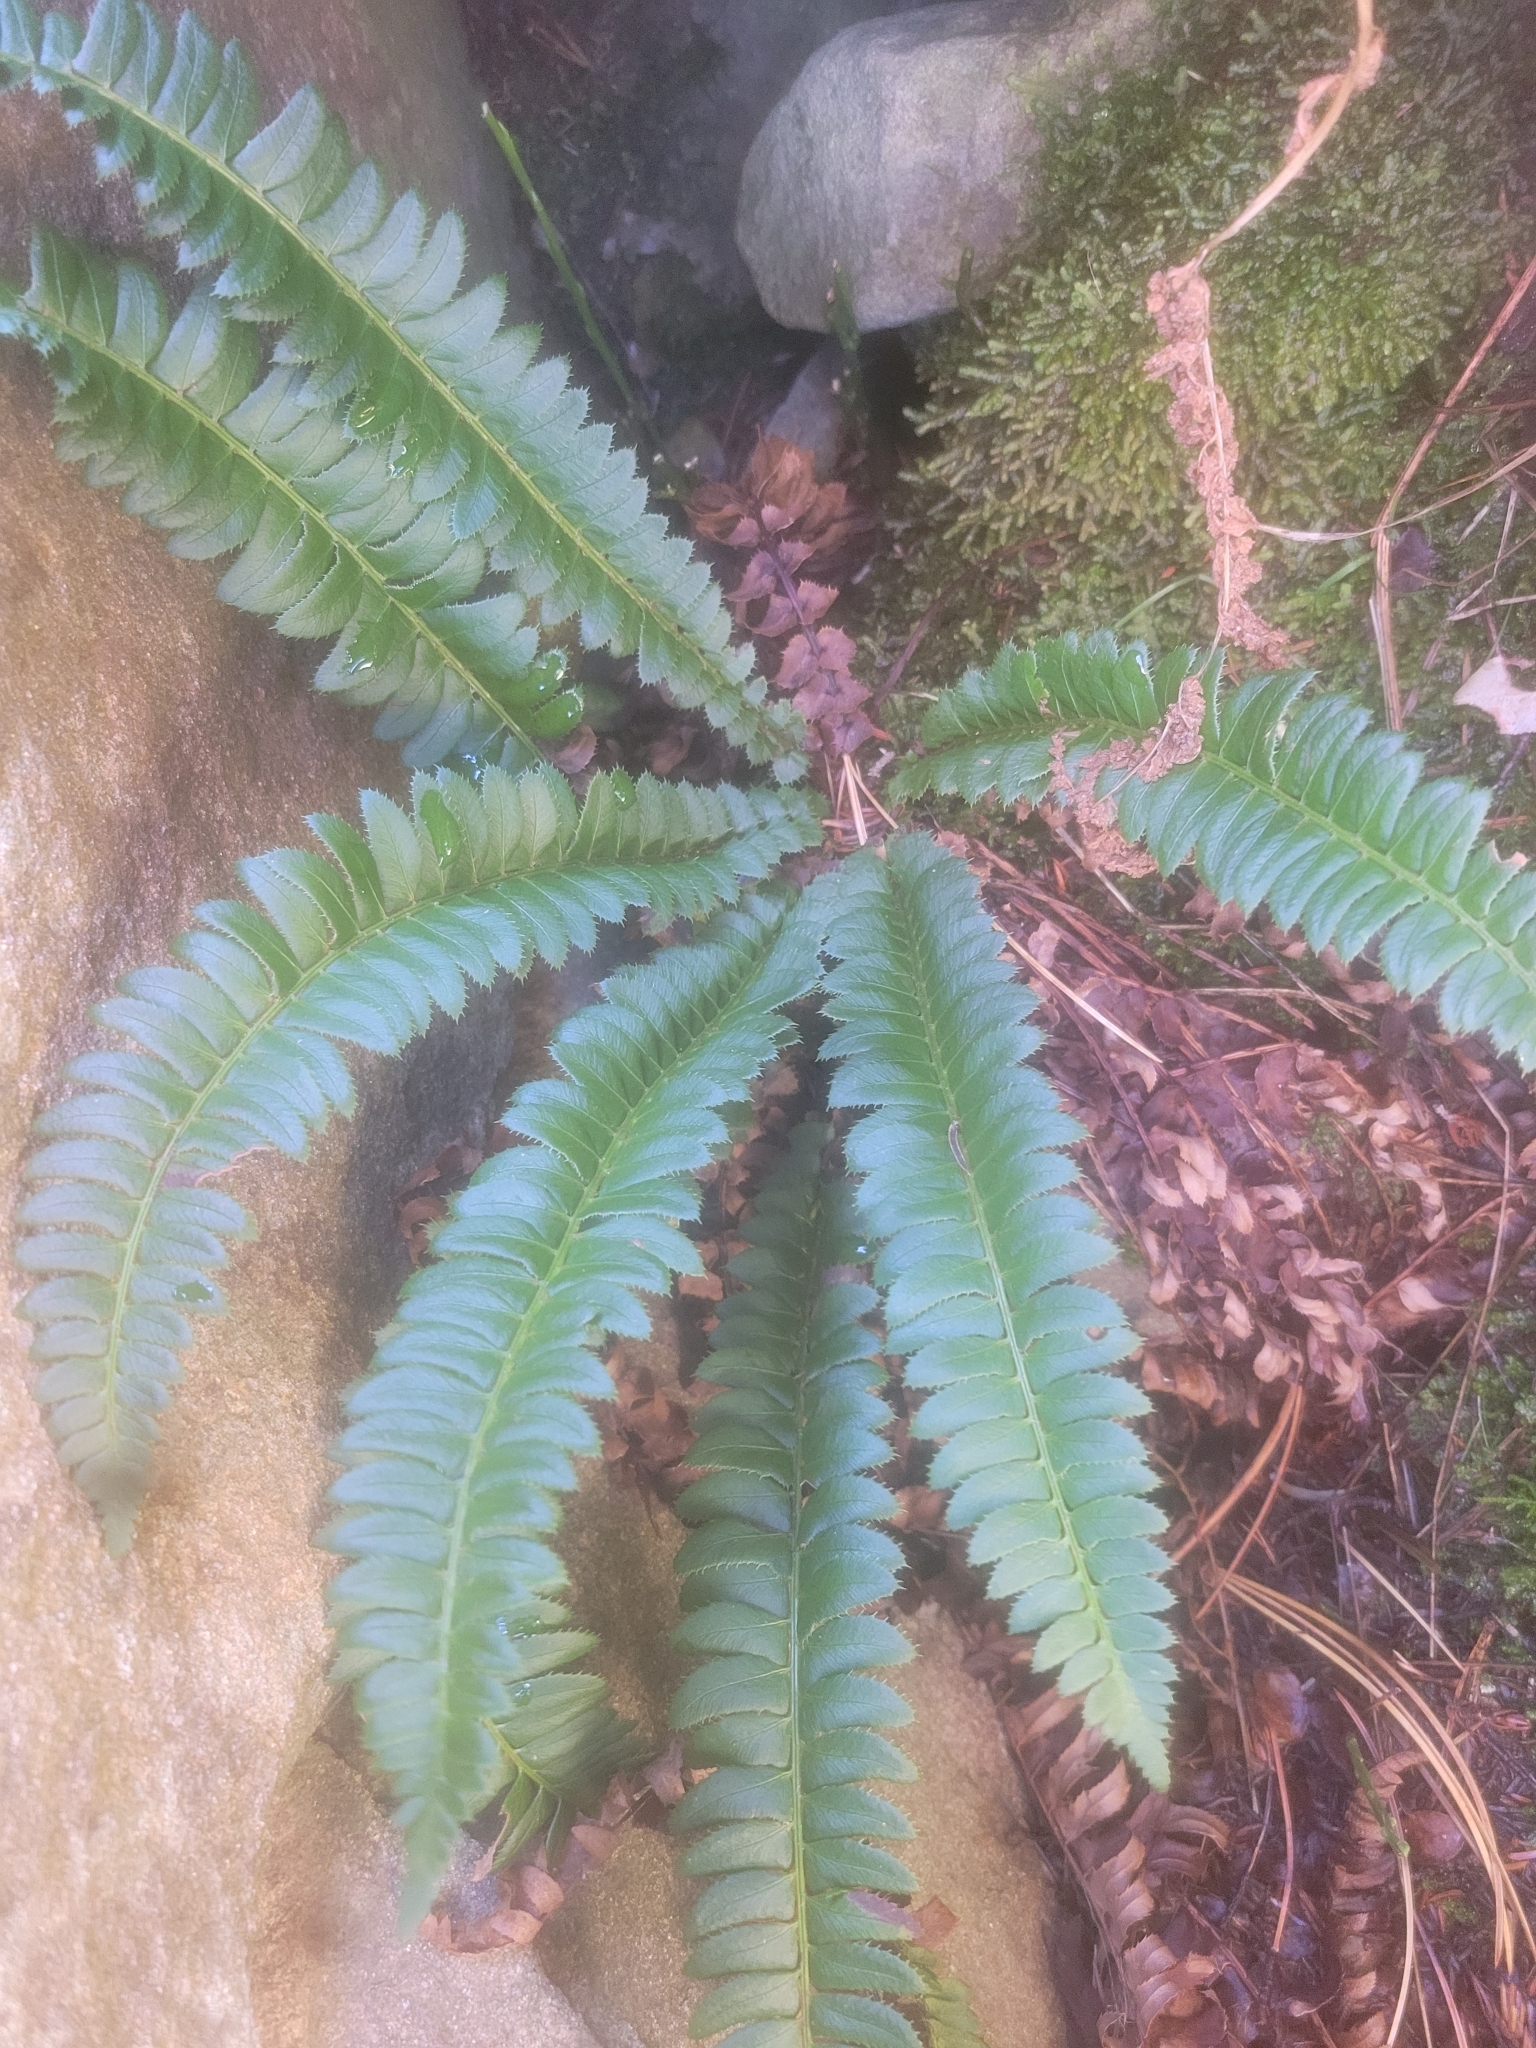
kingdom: Plantae
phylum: Tracheophyta
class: Polypodiopsida
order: Polypodiales
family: Dryopteridaceae
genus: Polystichum
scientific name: Polystichum lonchitis
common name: Holly fern
